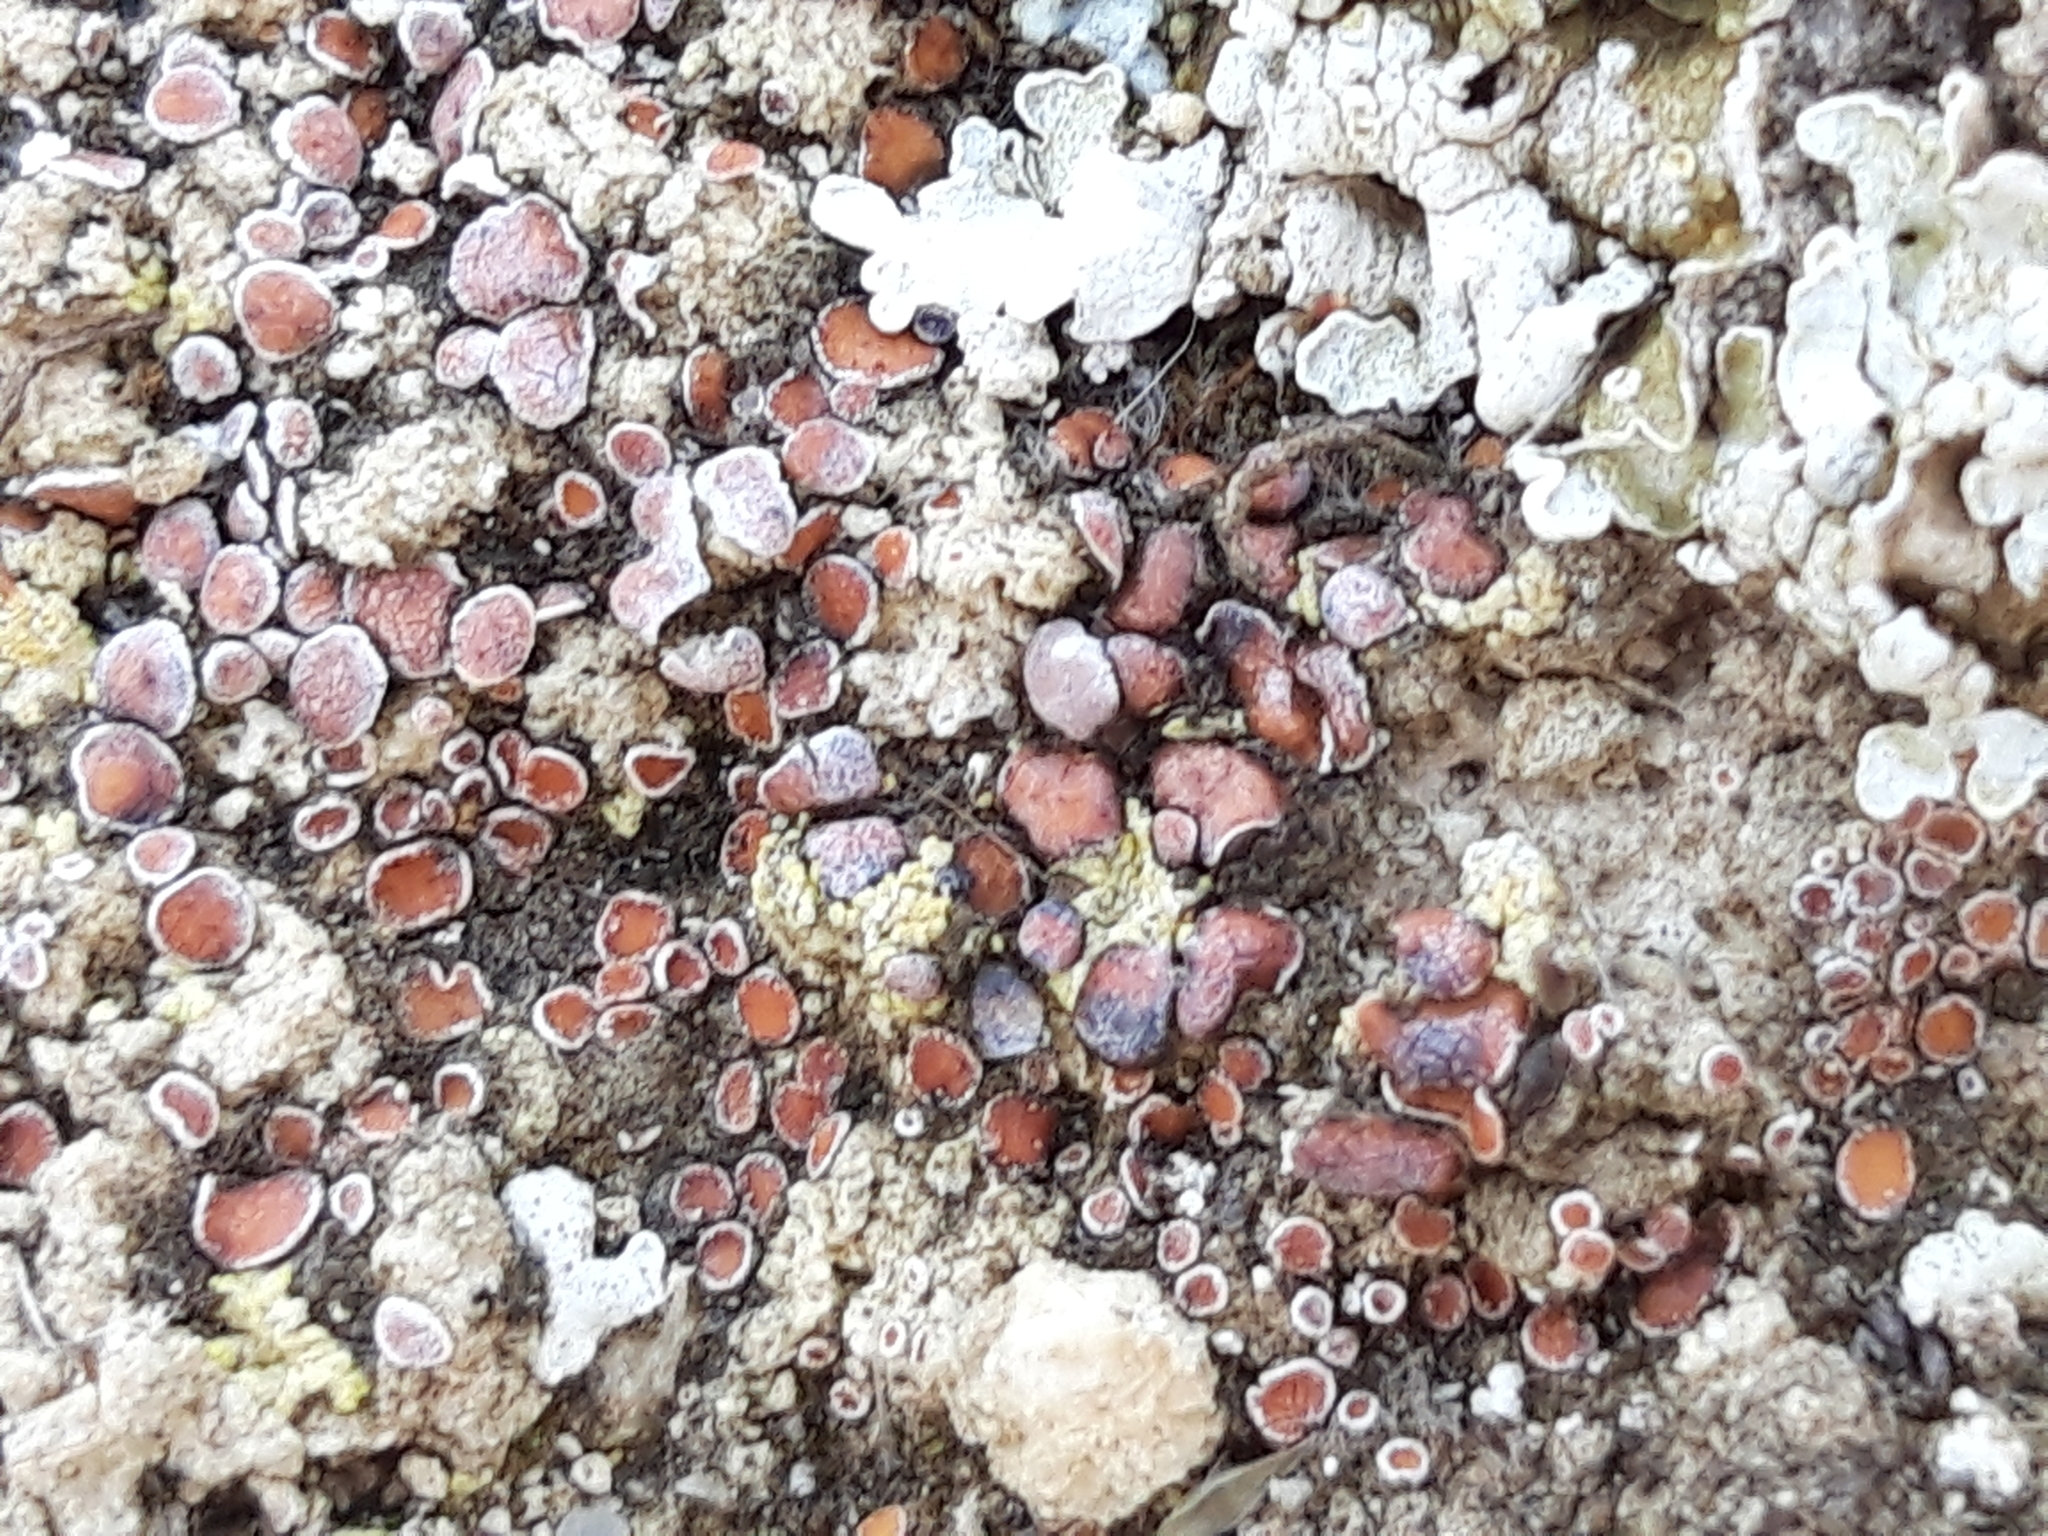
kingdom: Fungi
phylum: Ascomycota
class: Lecanoromycetes
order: Lecanorales
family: Psoraceae
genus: Psora
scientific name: Psora decipiens
